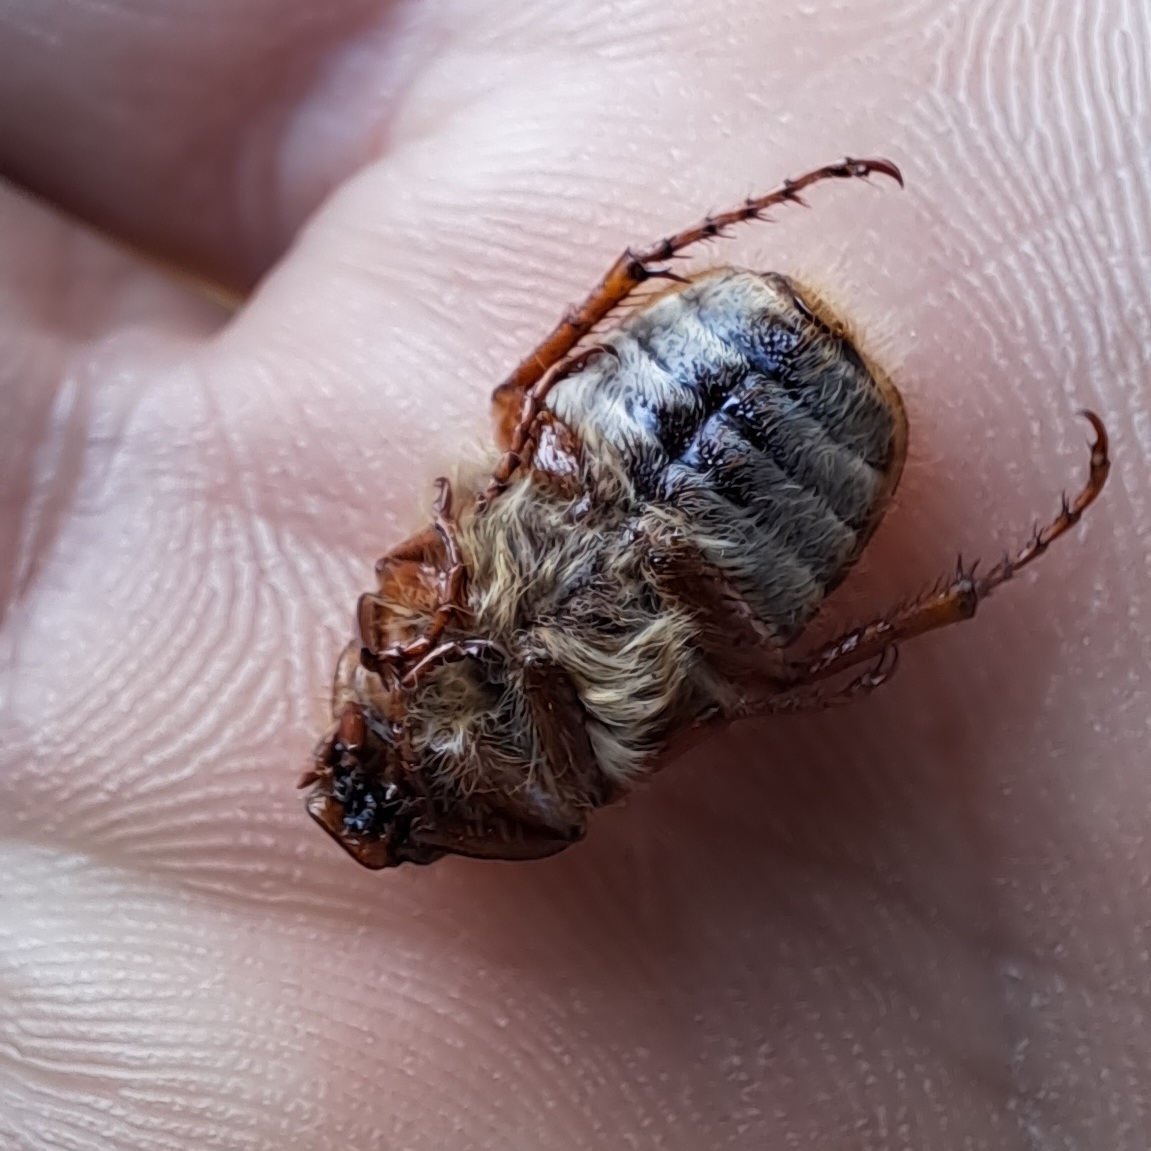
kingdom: Animalia
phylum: Arthropoda
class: Insecta
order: Coleoptera
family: Scarabaeidae
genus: Amphimallon
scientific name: Amphimallon solstitiale
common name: Summer chafer
